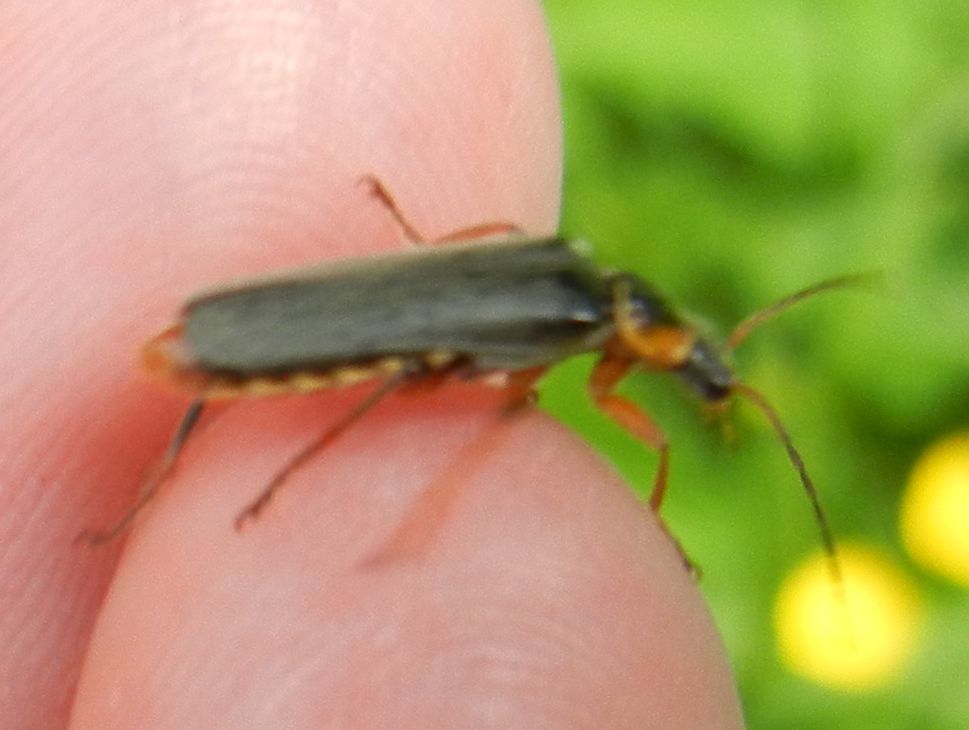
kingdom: Animalia
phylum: Arthropoda
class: Insecta
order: Coleoptera
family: Cantharidae
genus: Cantharis
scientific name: Cantharis nigricans
